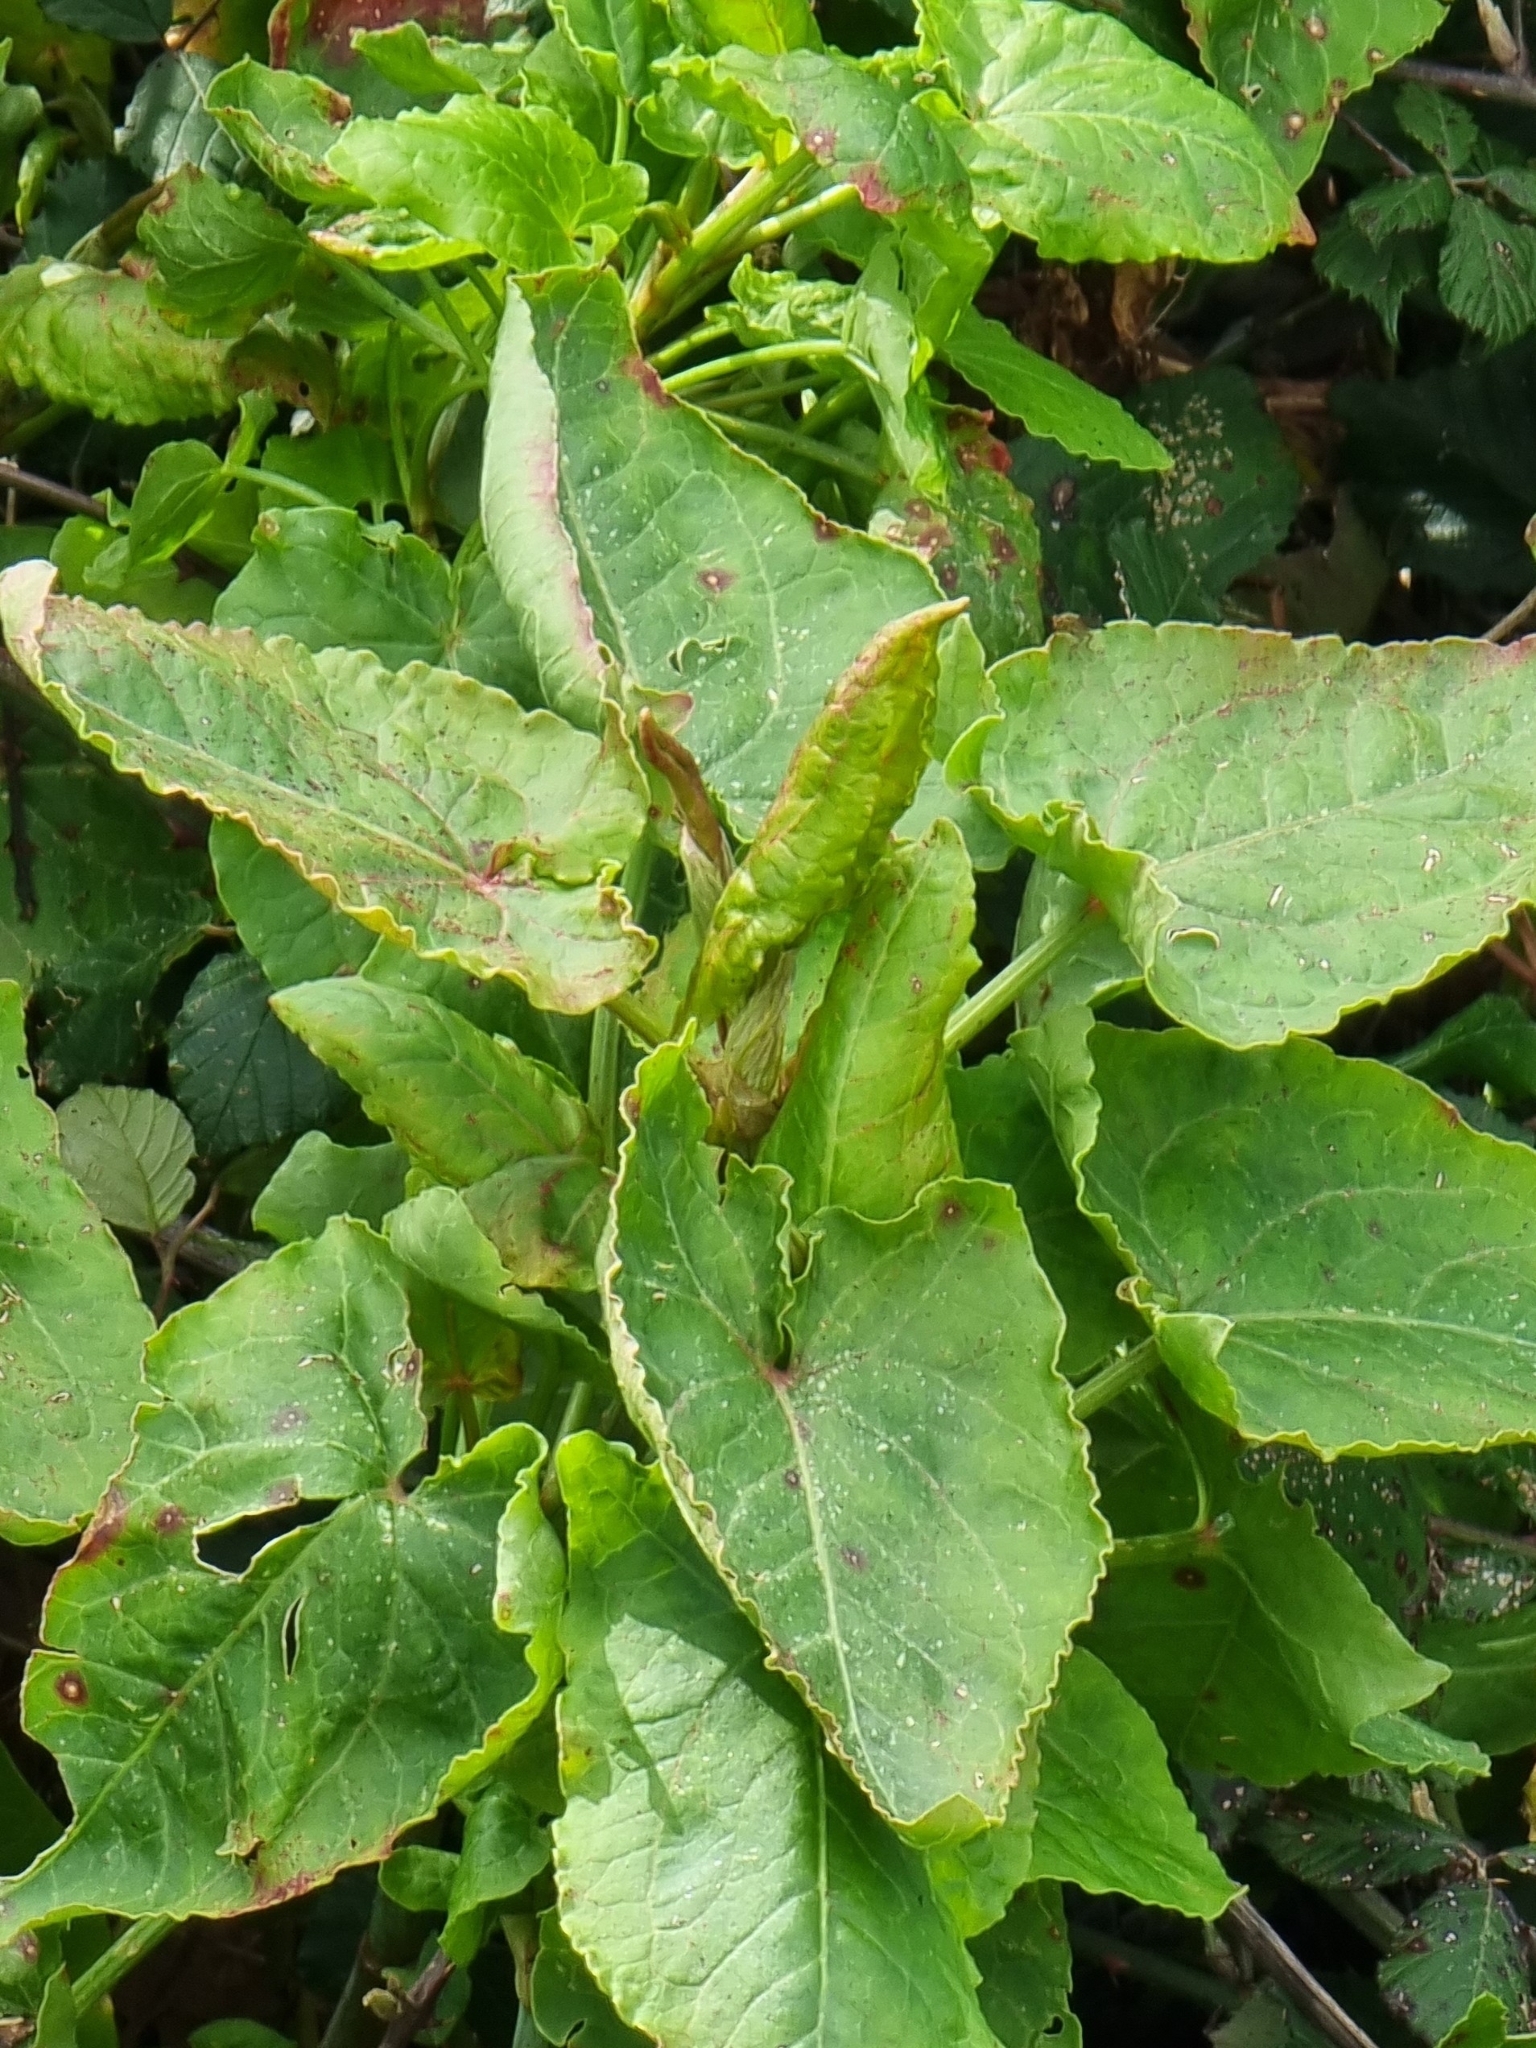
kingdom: Plantae
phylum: Tracheophyta
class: Magnoliopsida
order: Caryophyllales
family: Polygonaceae
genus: Rumex
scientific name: Rumex maderensis
